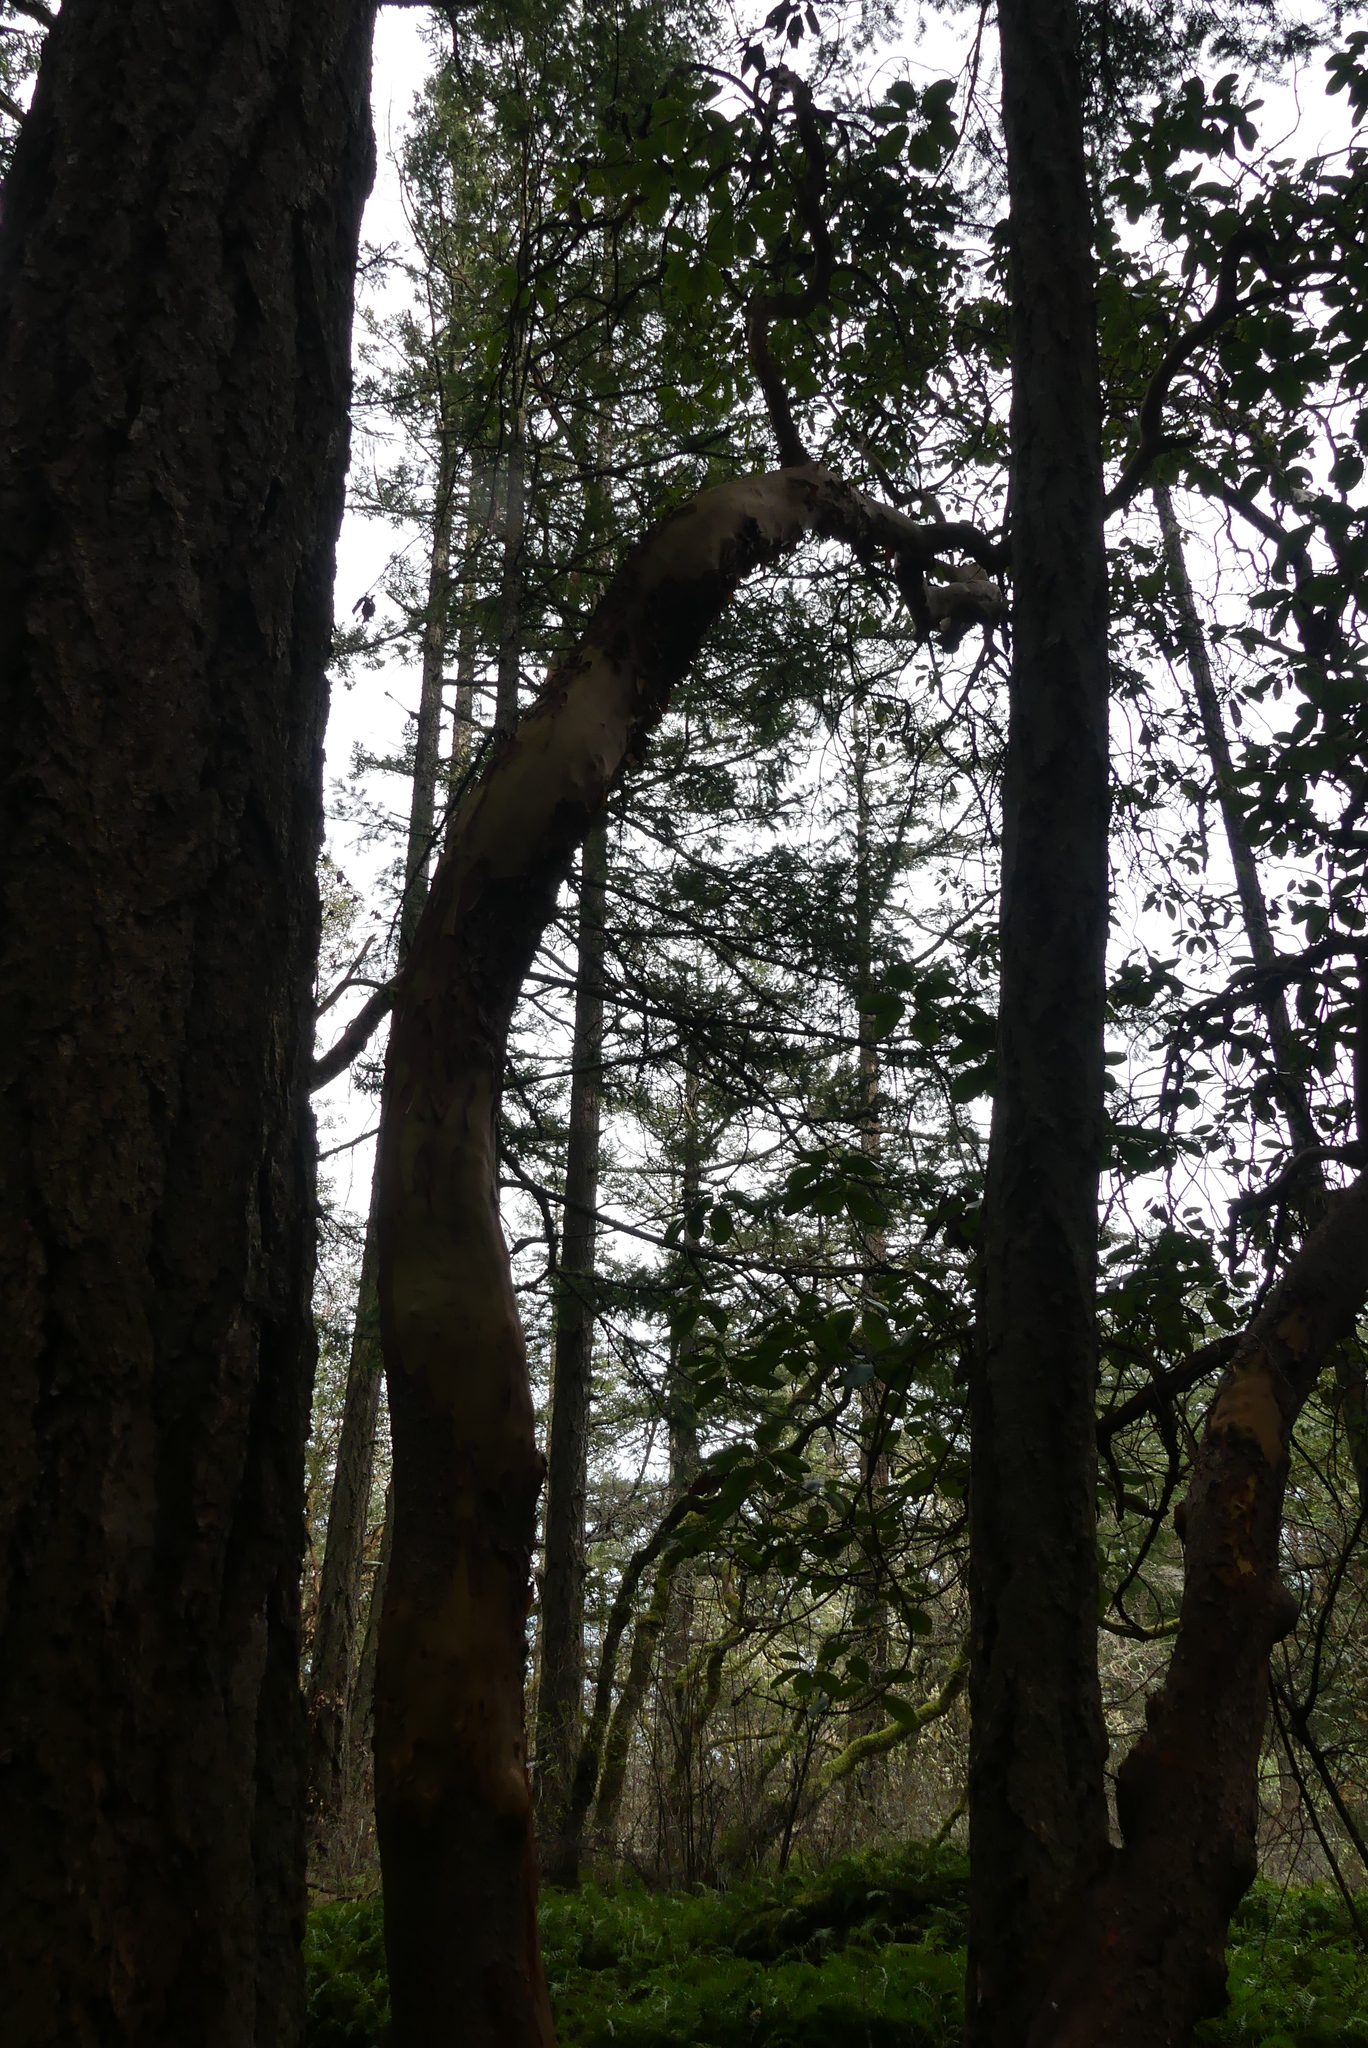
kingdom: Plantae
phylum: Tracheophyta
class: Magnoliopsida
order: Ericales
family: Ericaceae
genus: Arbutus
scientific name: Arbutus menziesii
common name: Pacific madrone
